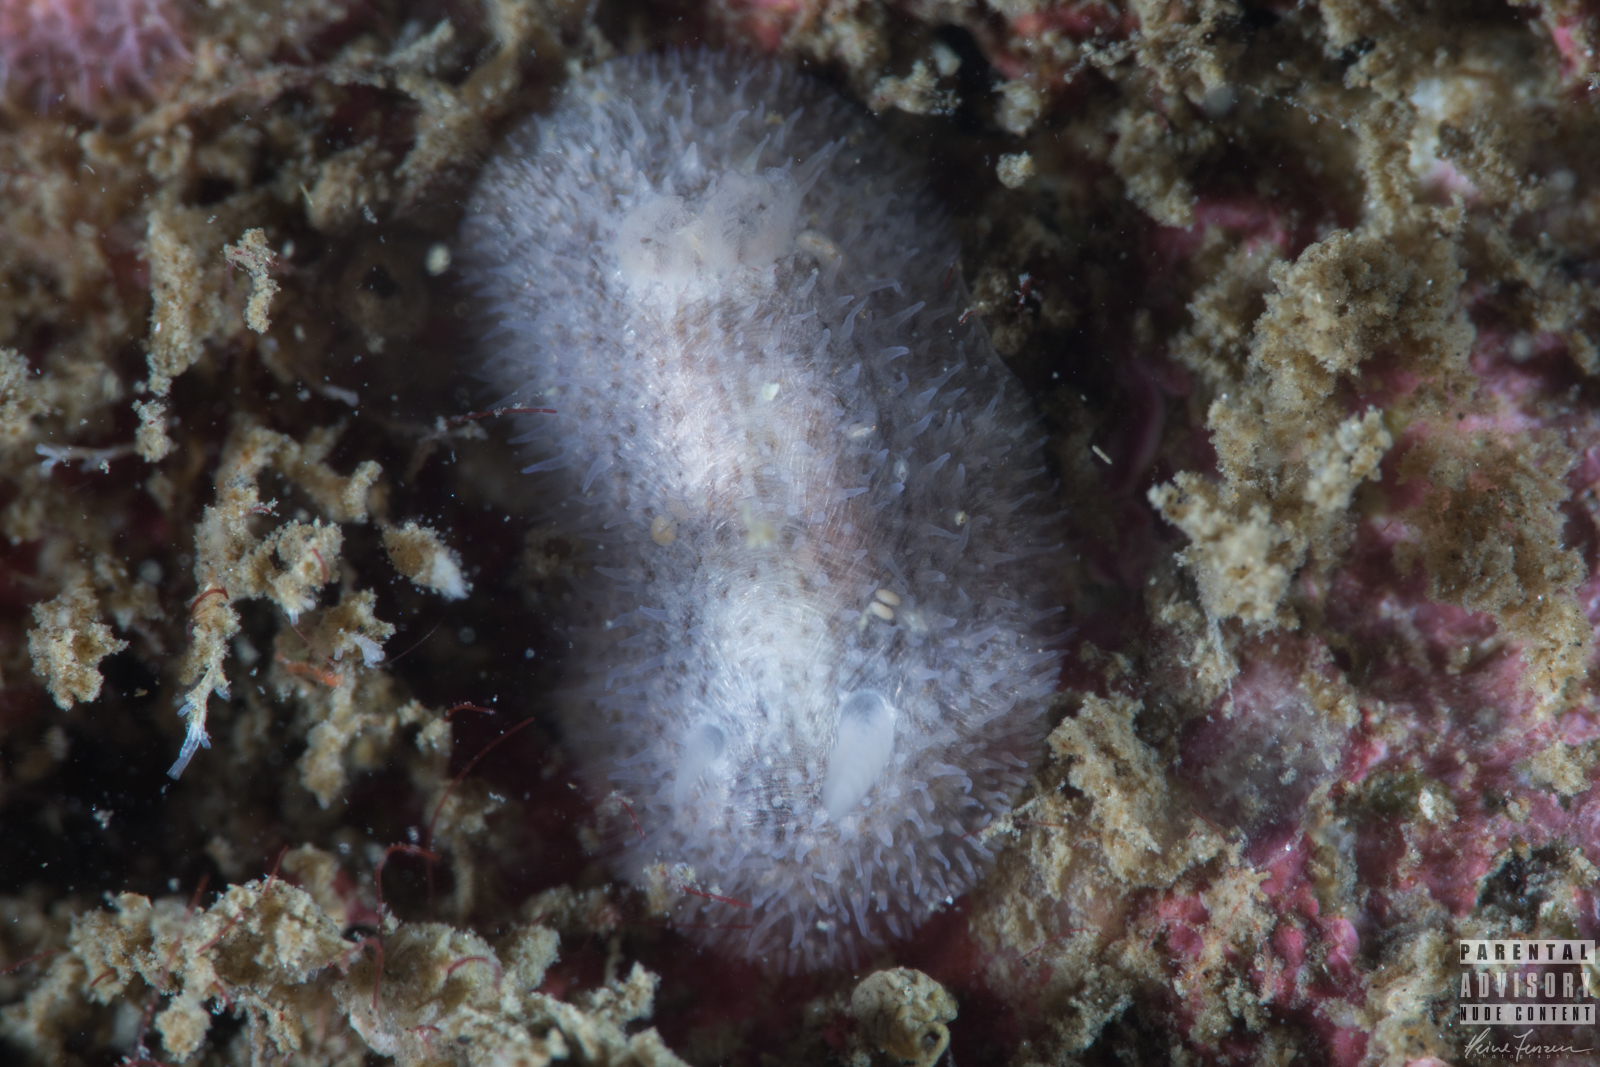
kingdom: Animalia
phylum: Mollusca
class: Gastropoda
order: Nudibranchia
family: Onchidorididae
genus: Idaliadoris
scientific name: Idaliadoris depressa
